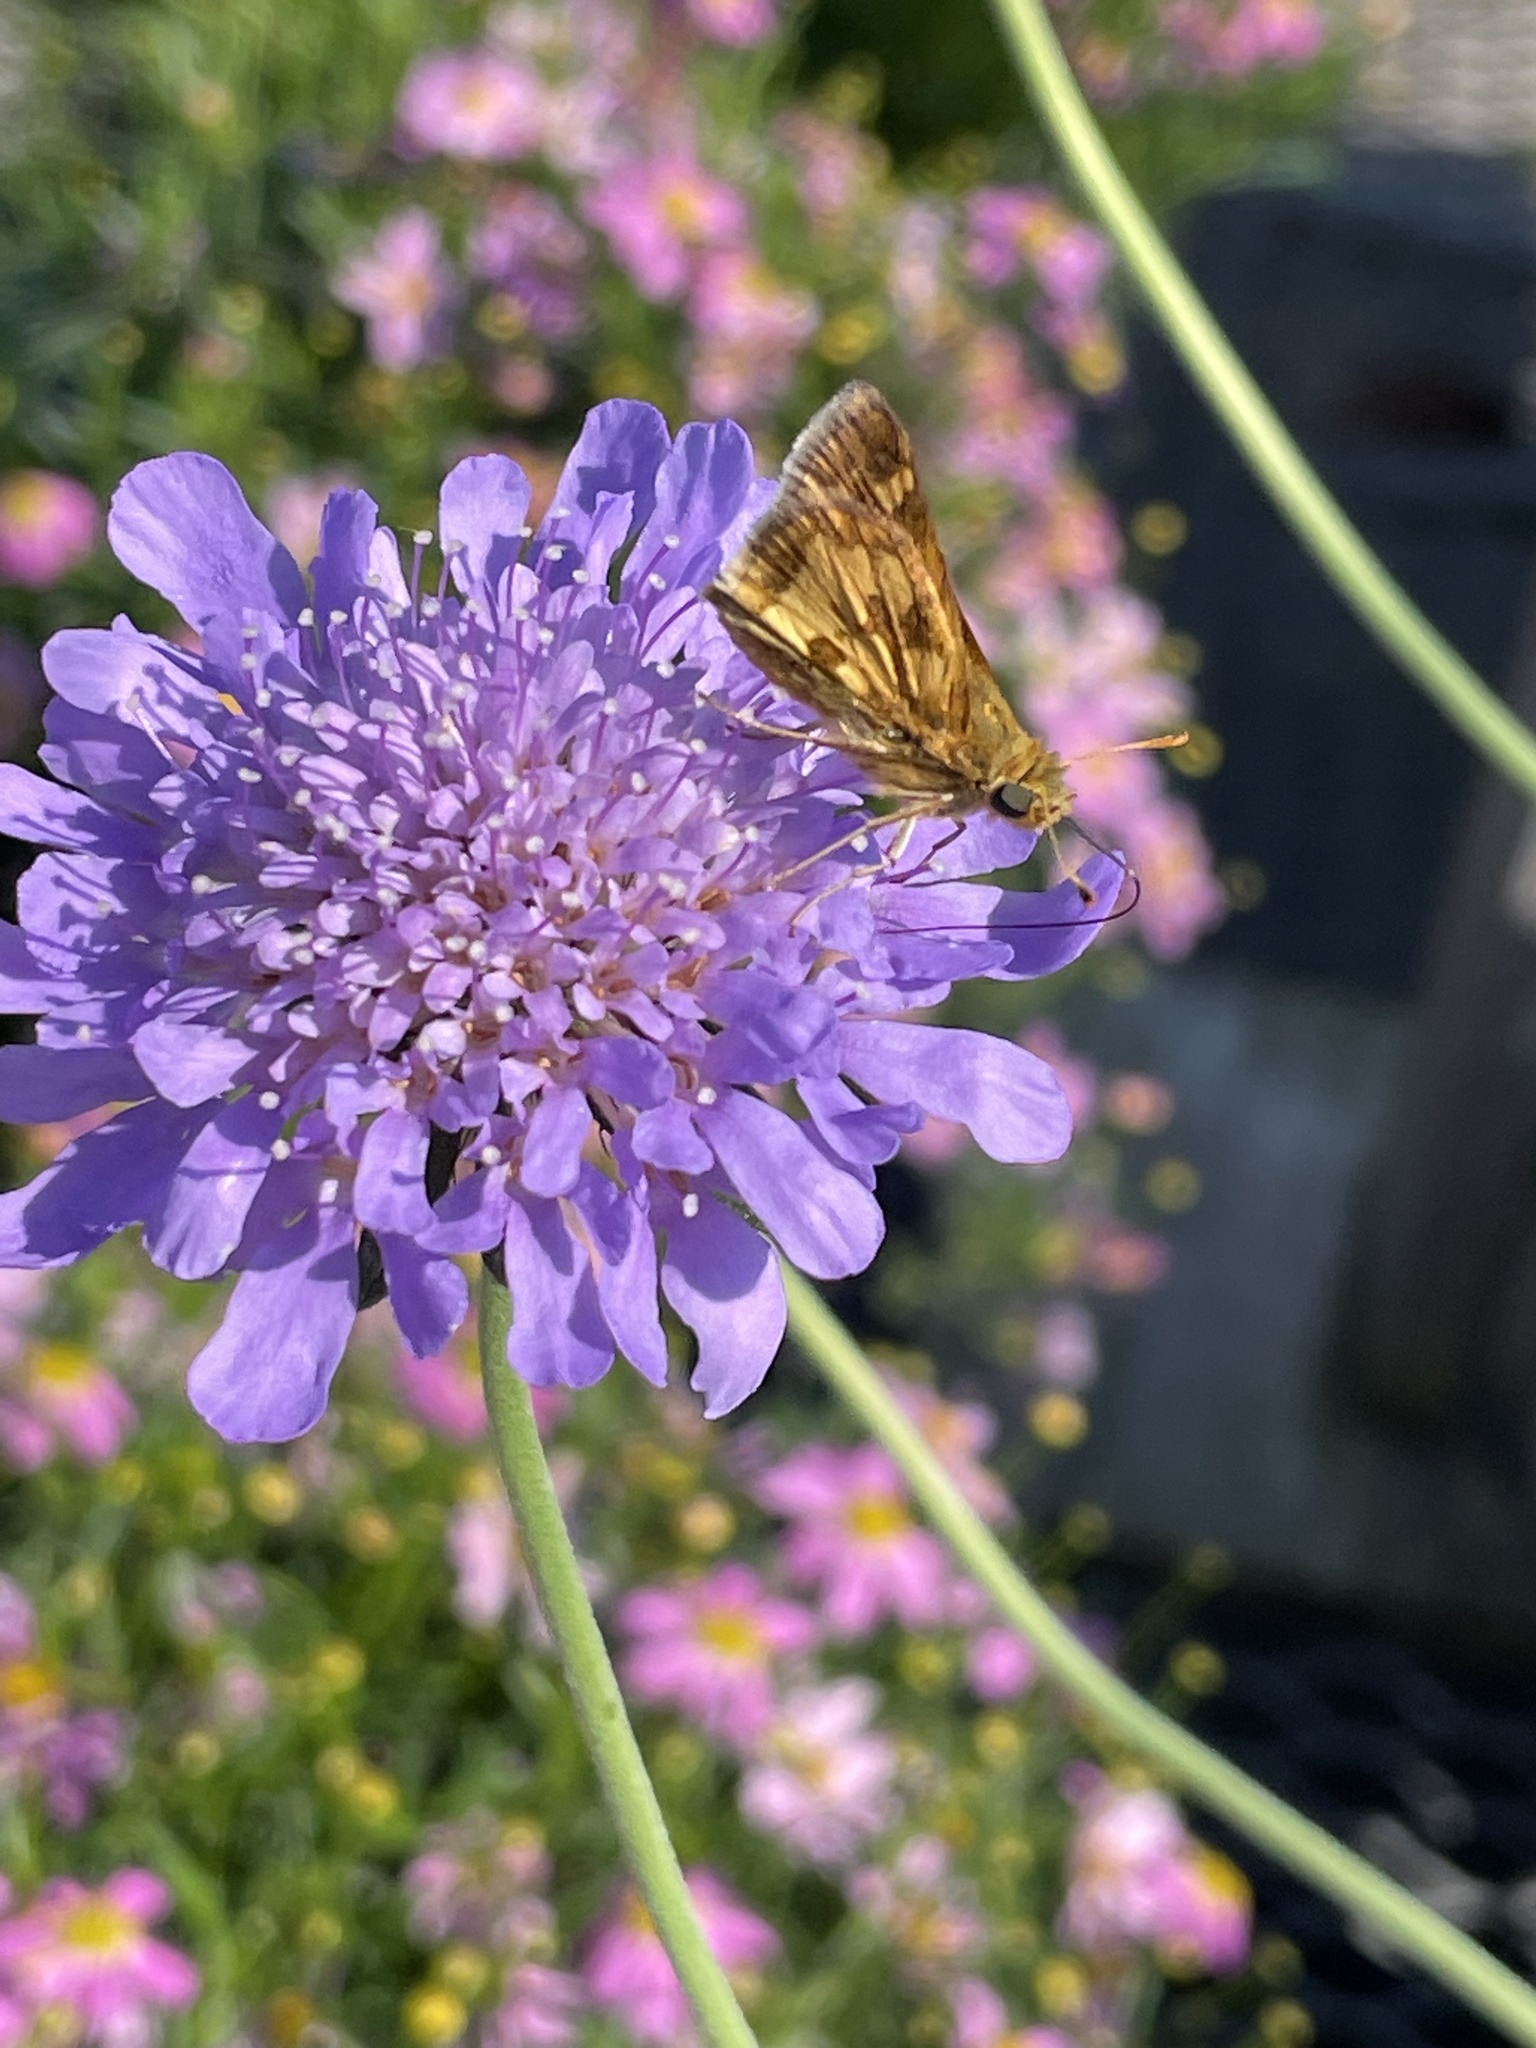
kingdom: Animalia
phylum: Arthropoda
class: Insecta
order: Lepidoptera
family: Hesperiidae
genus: Polites
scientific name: Polites coras
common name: Peck's skipper
